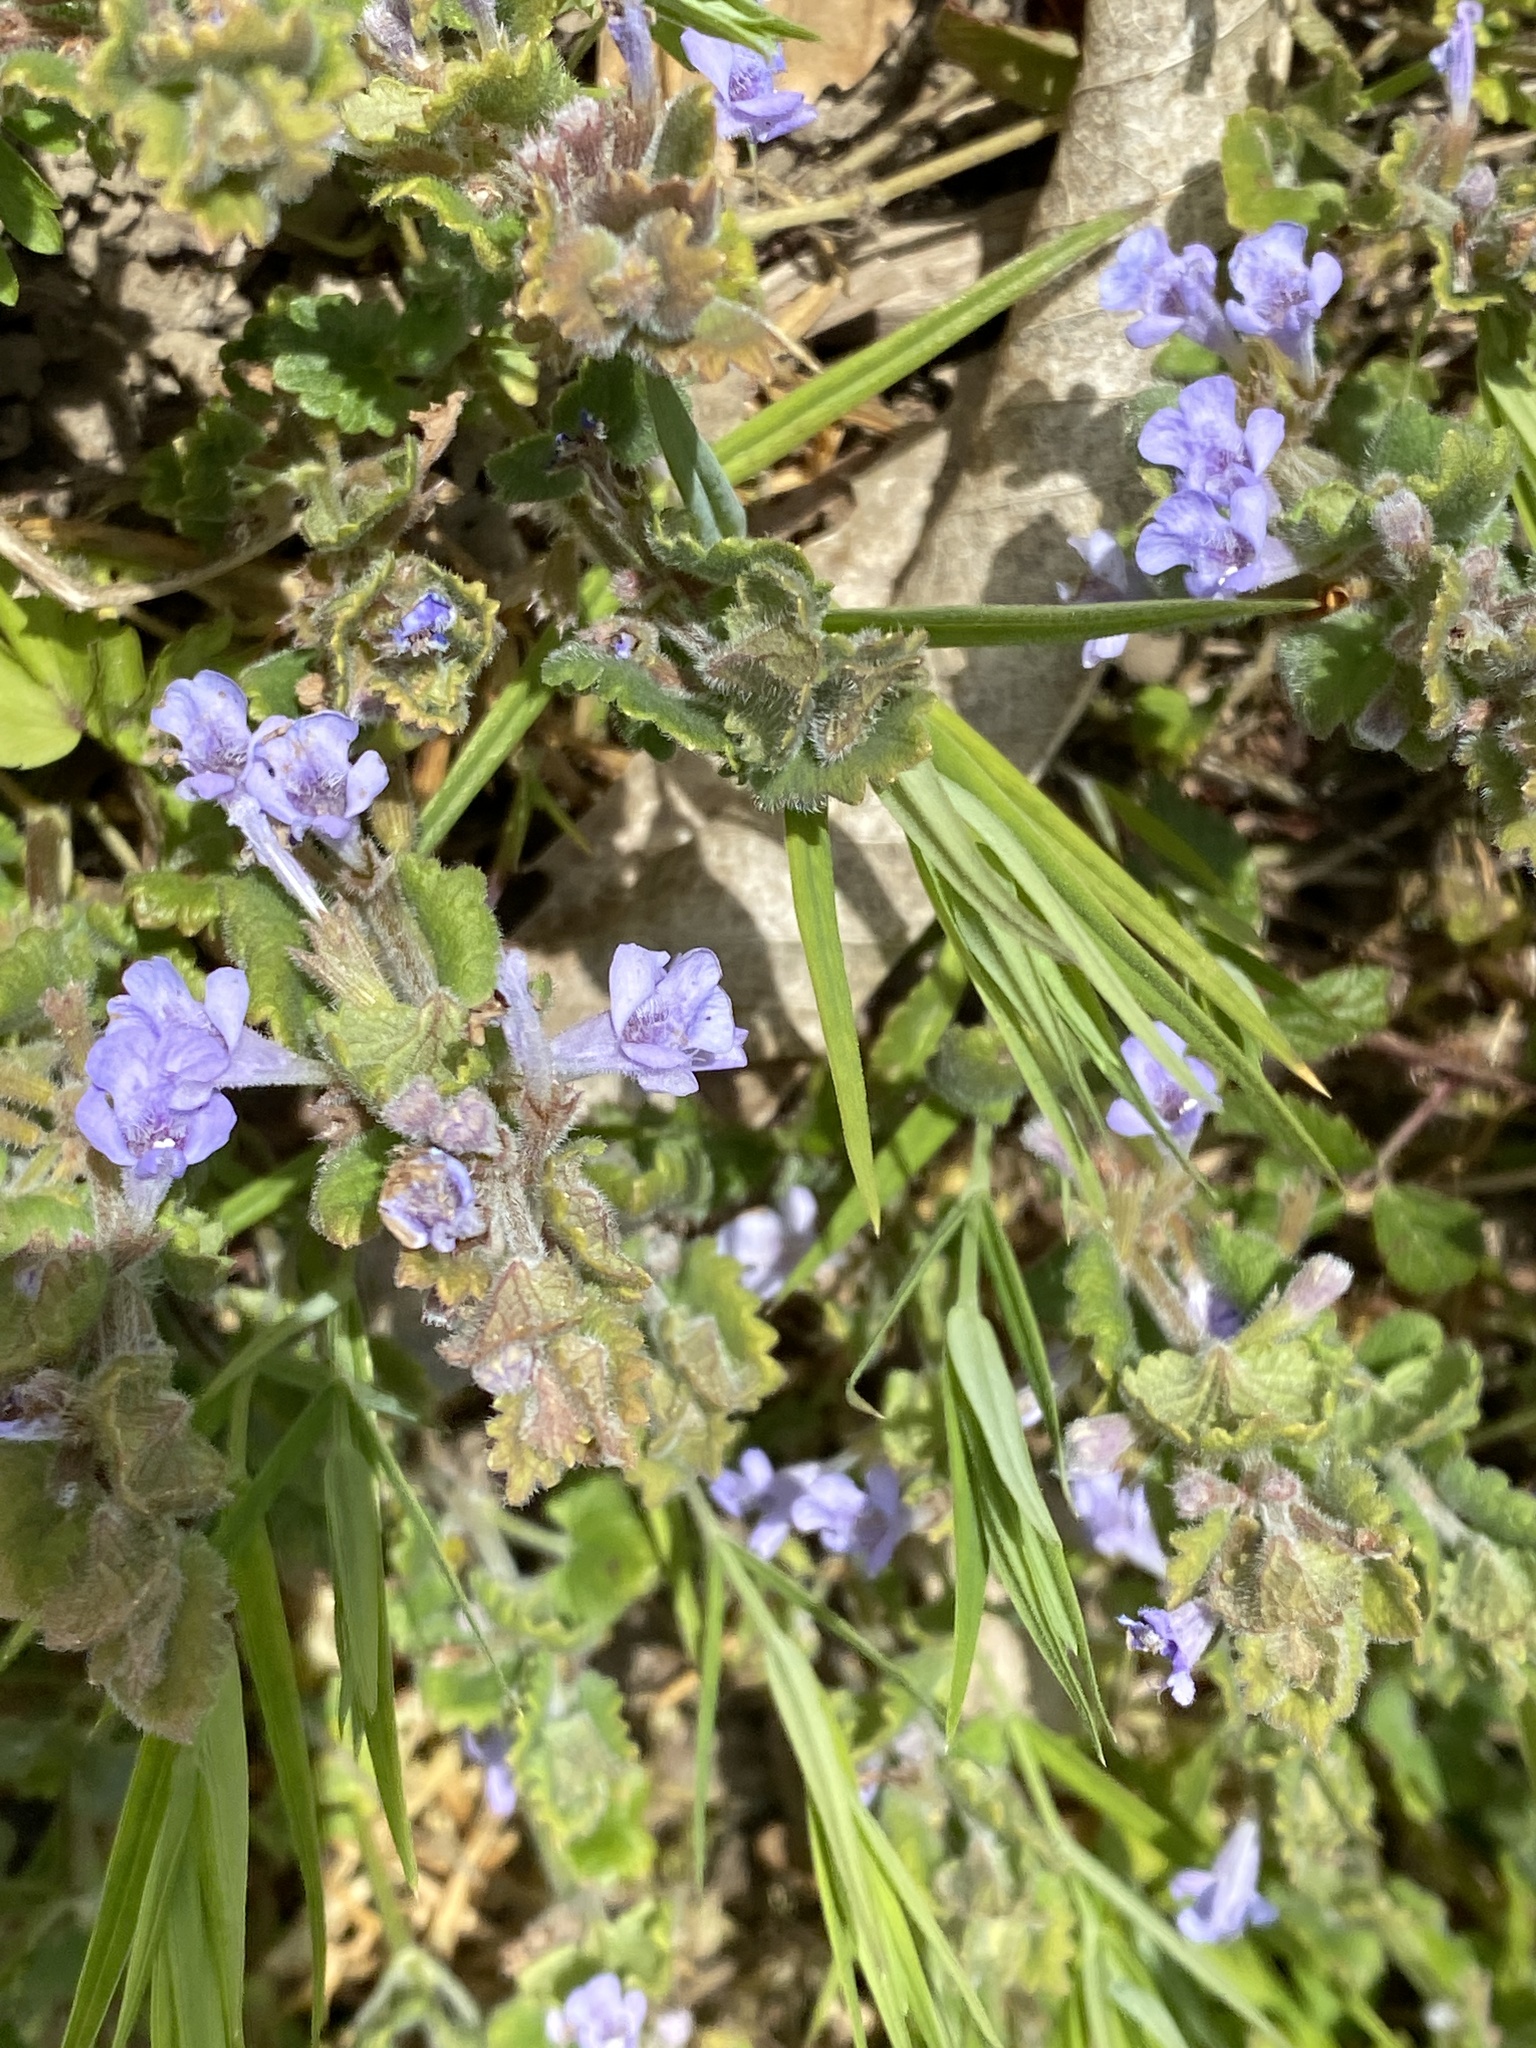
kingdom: Plantae
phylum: Tracheophyta
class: Magnoliopsida
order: Lamiales
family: Lamiaceae
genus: Glechoma
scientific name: Glechoma hederacea
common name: Ground ivy
